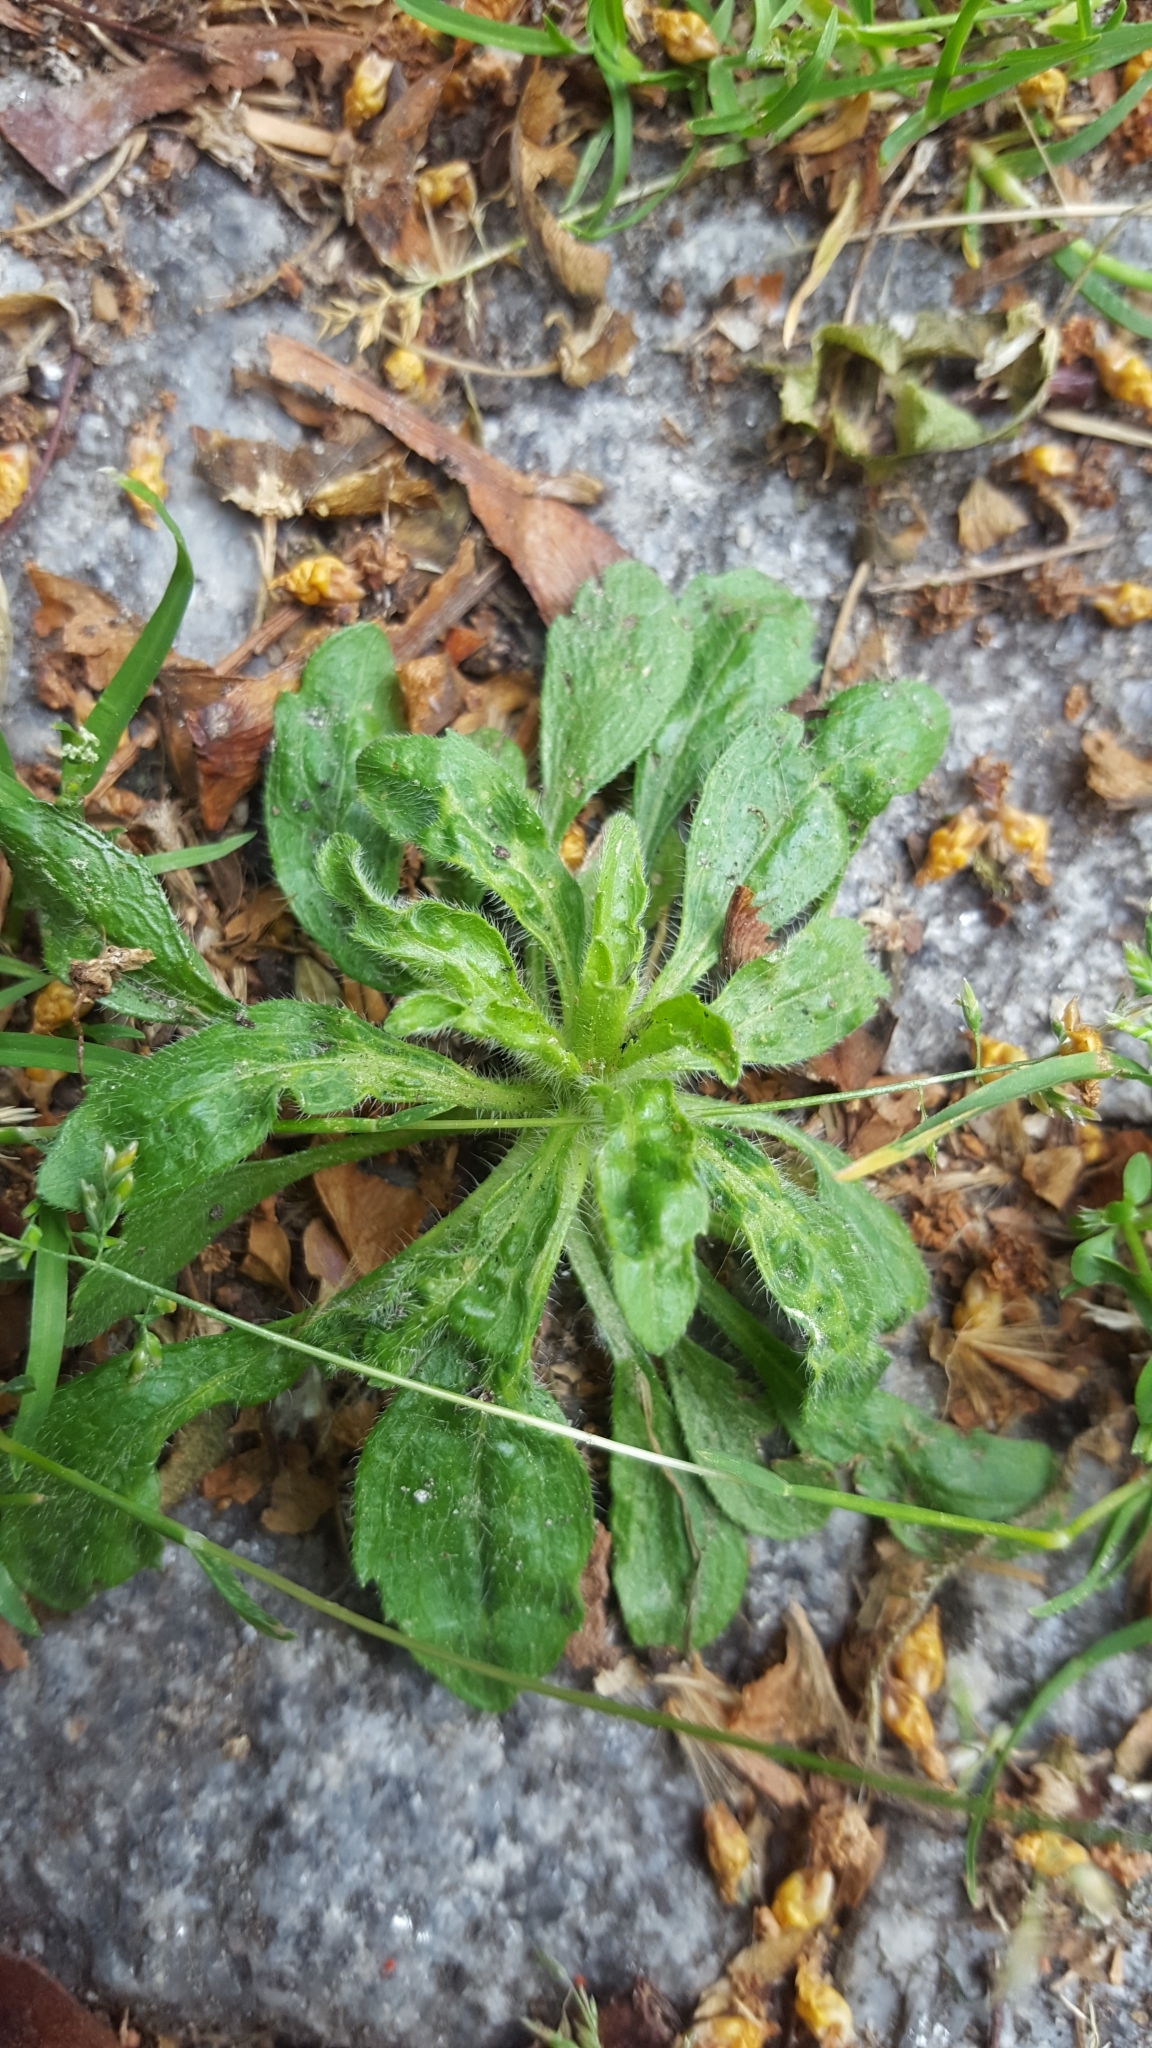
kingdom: Plantae
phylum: Tracheophyta
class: Magnoliopsida
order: Asterales
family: Asteraceae
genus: Erigeron
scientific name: Erigeron canadensis
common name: Canadian fleabane
